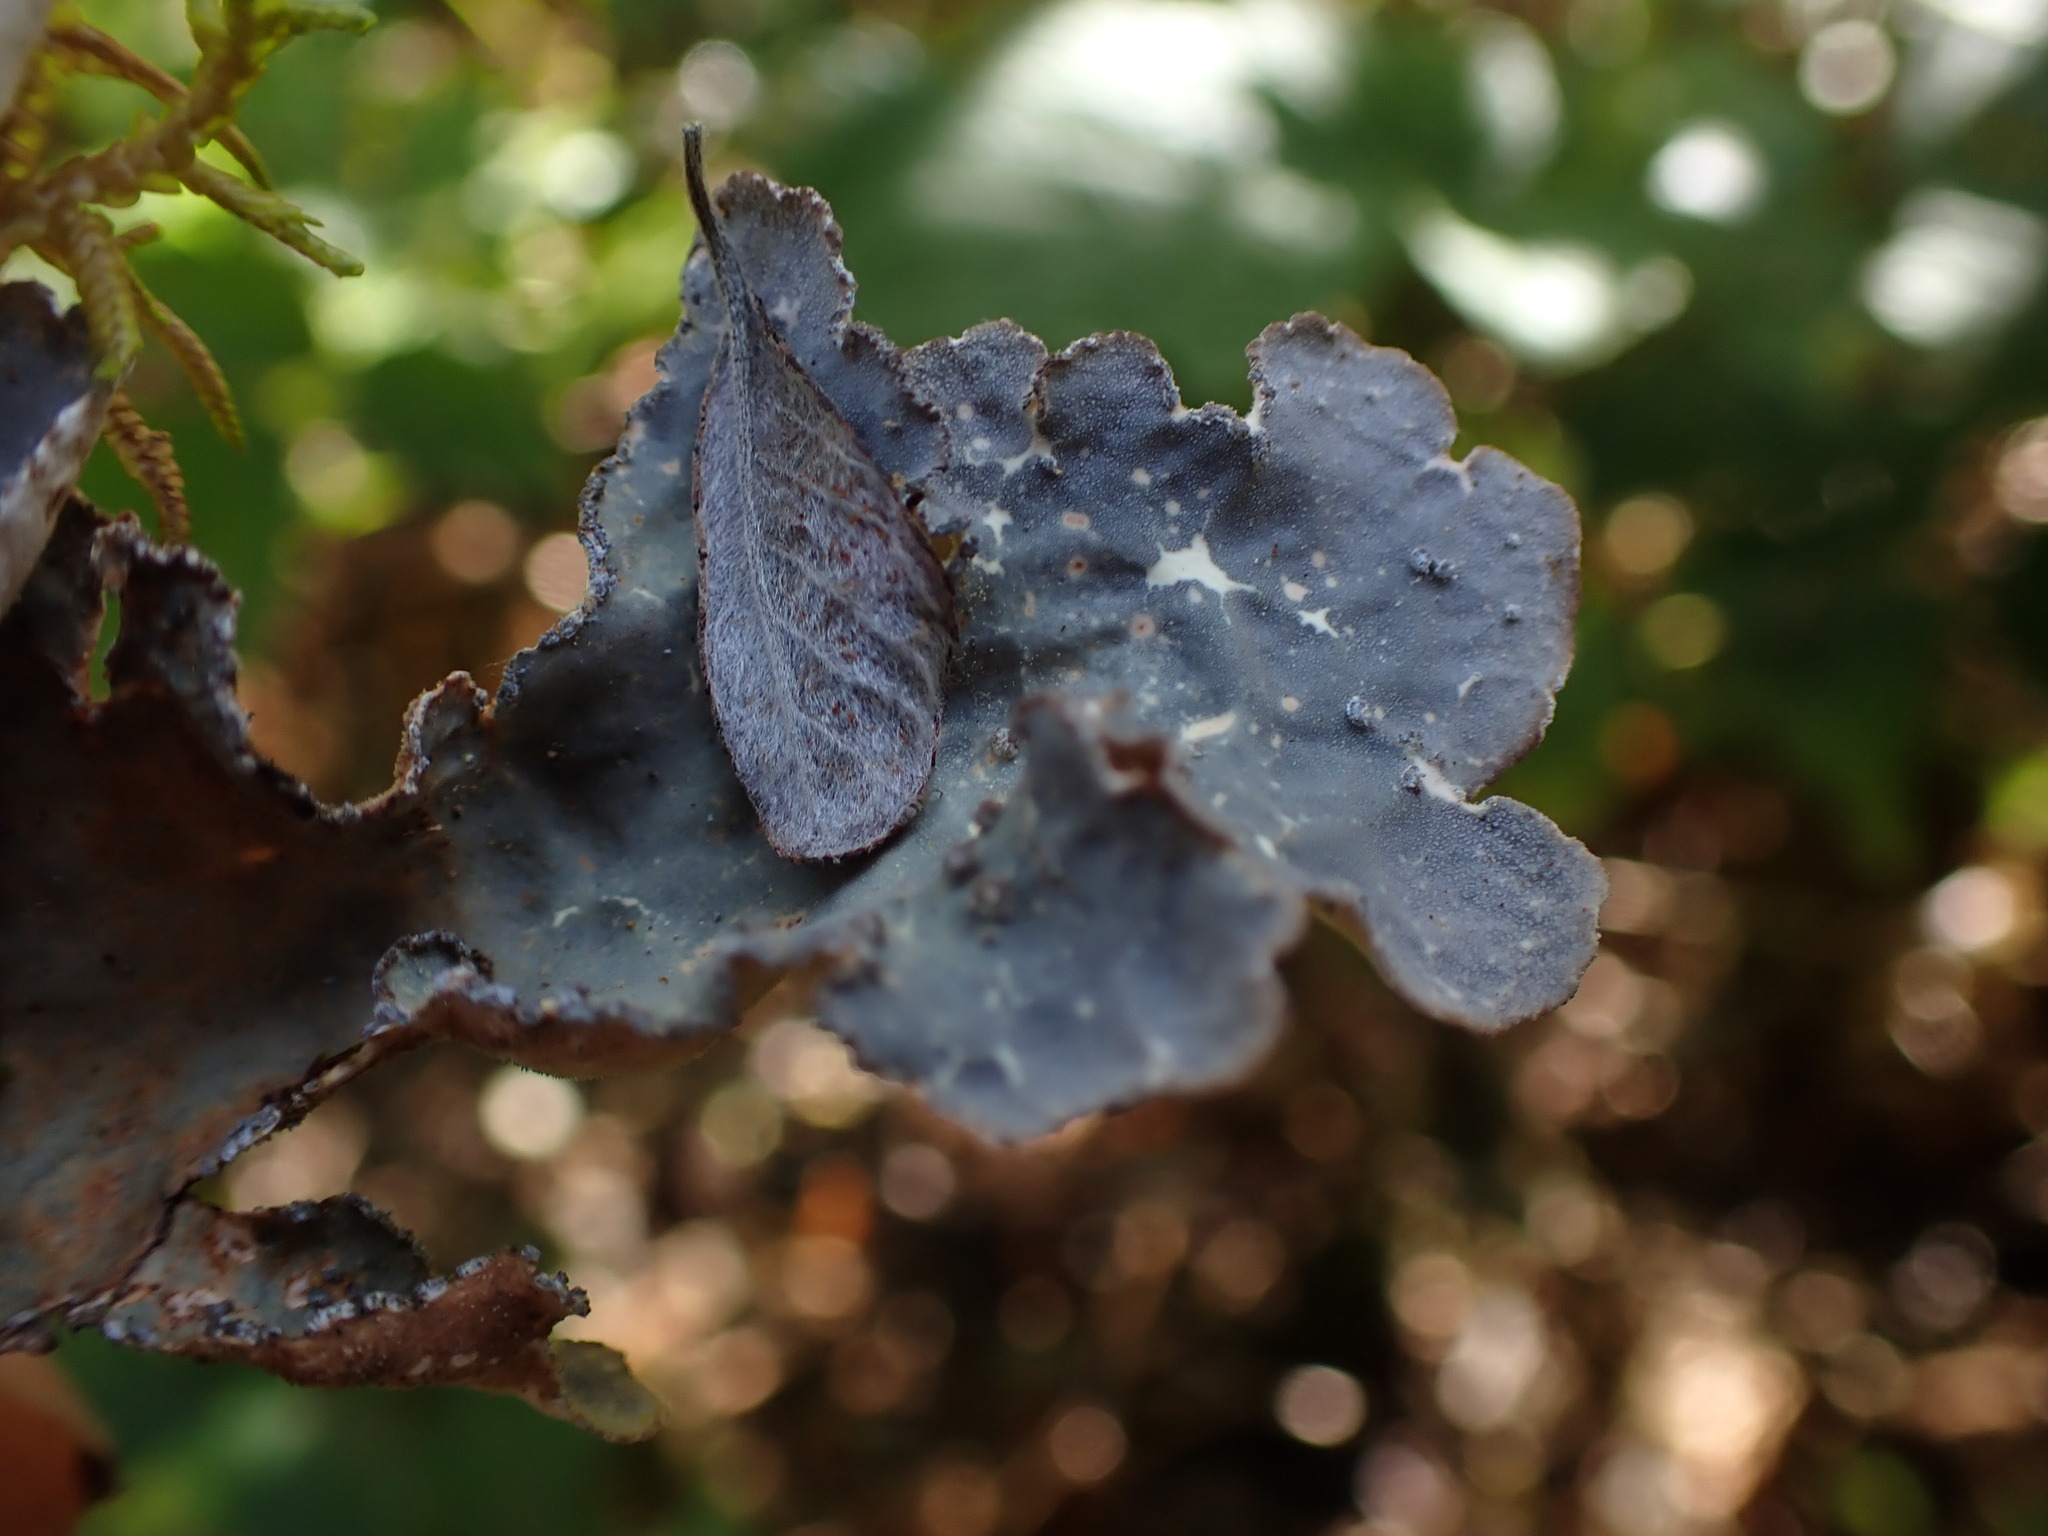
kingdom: Fungi
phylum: Ascomycota
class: Lecanoromycetes
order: Peltigerales
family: Lobariaceae
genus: Lobarina
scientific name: Lobarina scrobiculata
